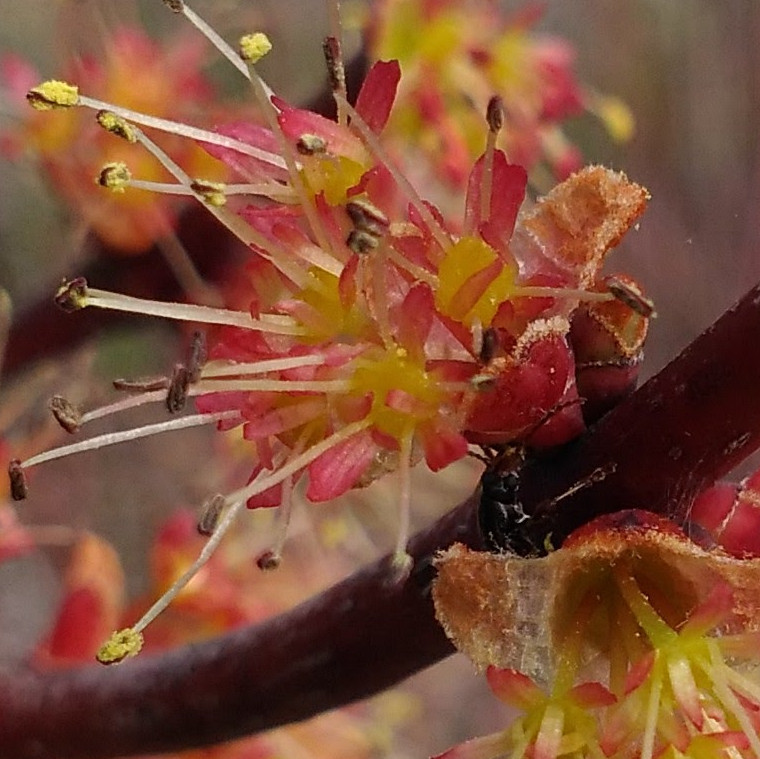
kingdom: Animalia
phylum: Arthropoda
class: Insecta
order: Coleoptera
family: Orsodacnidae
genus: Orsodacne
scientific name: Orsodacne atra
